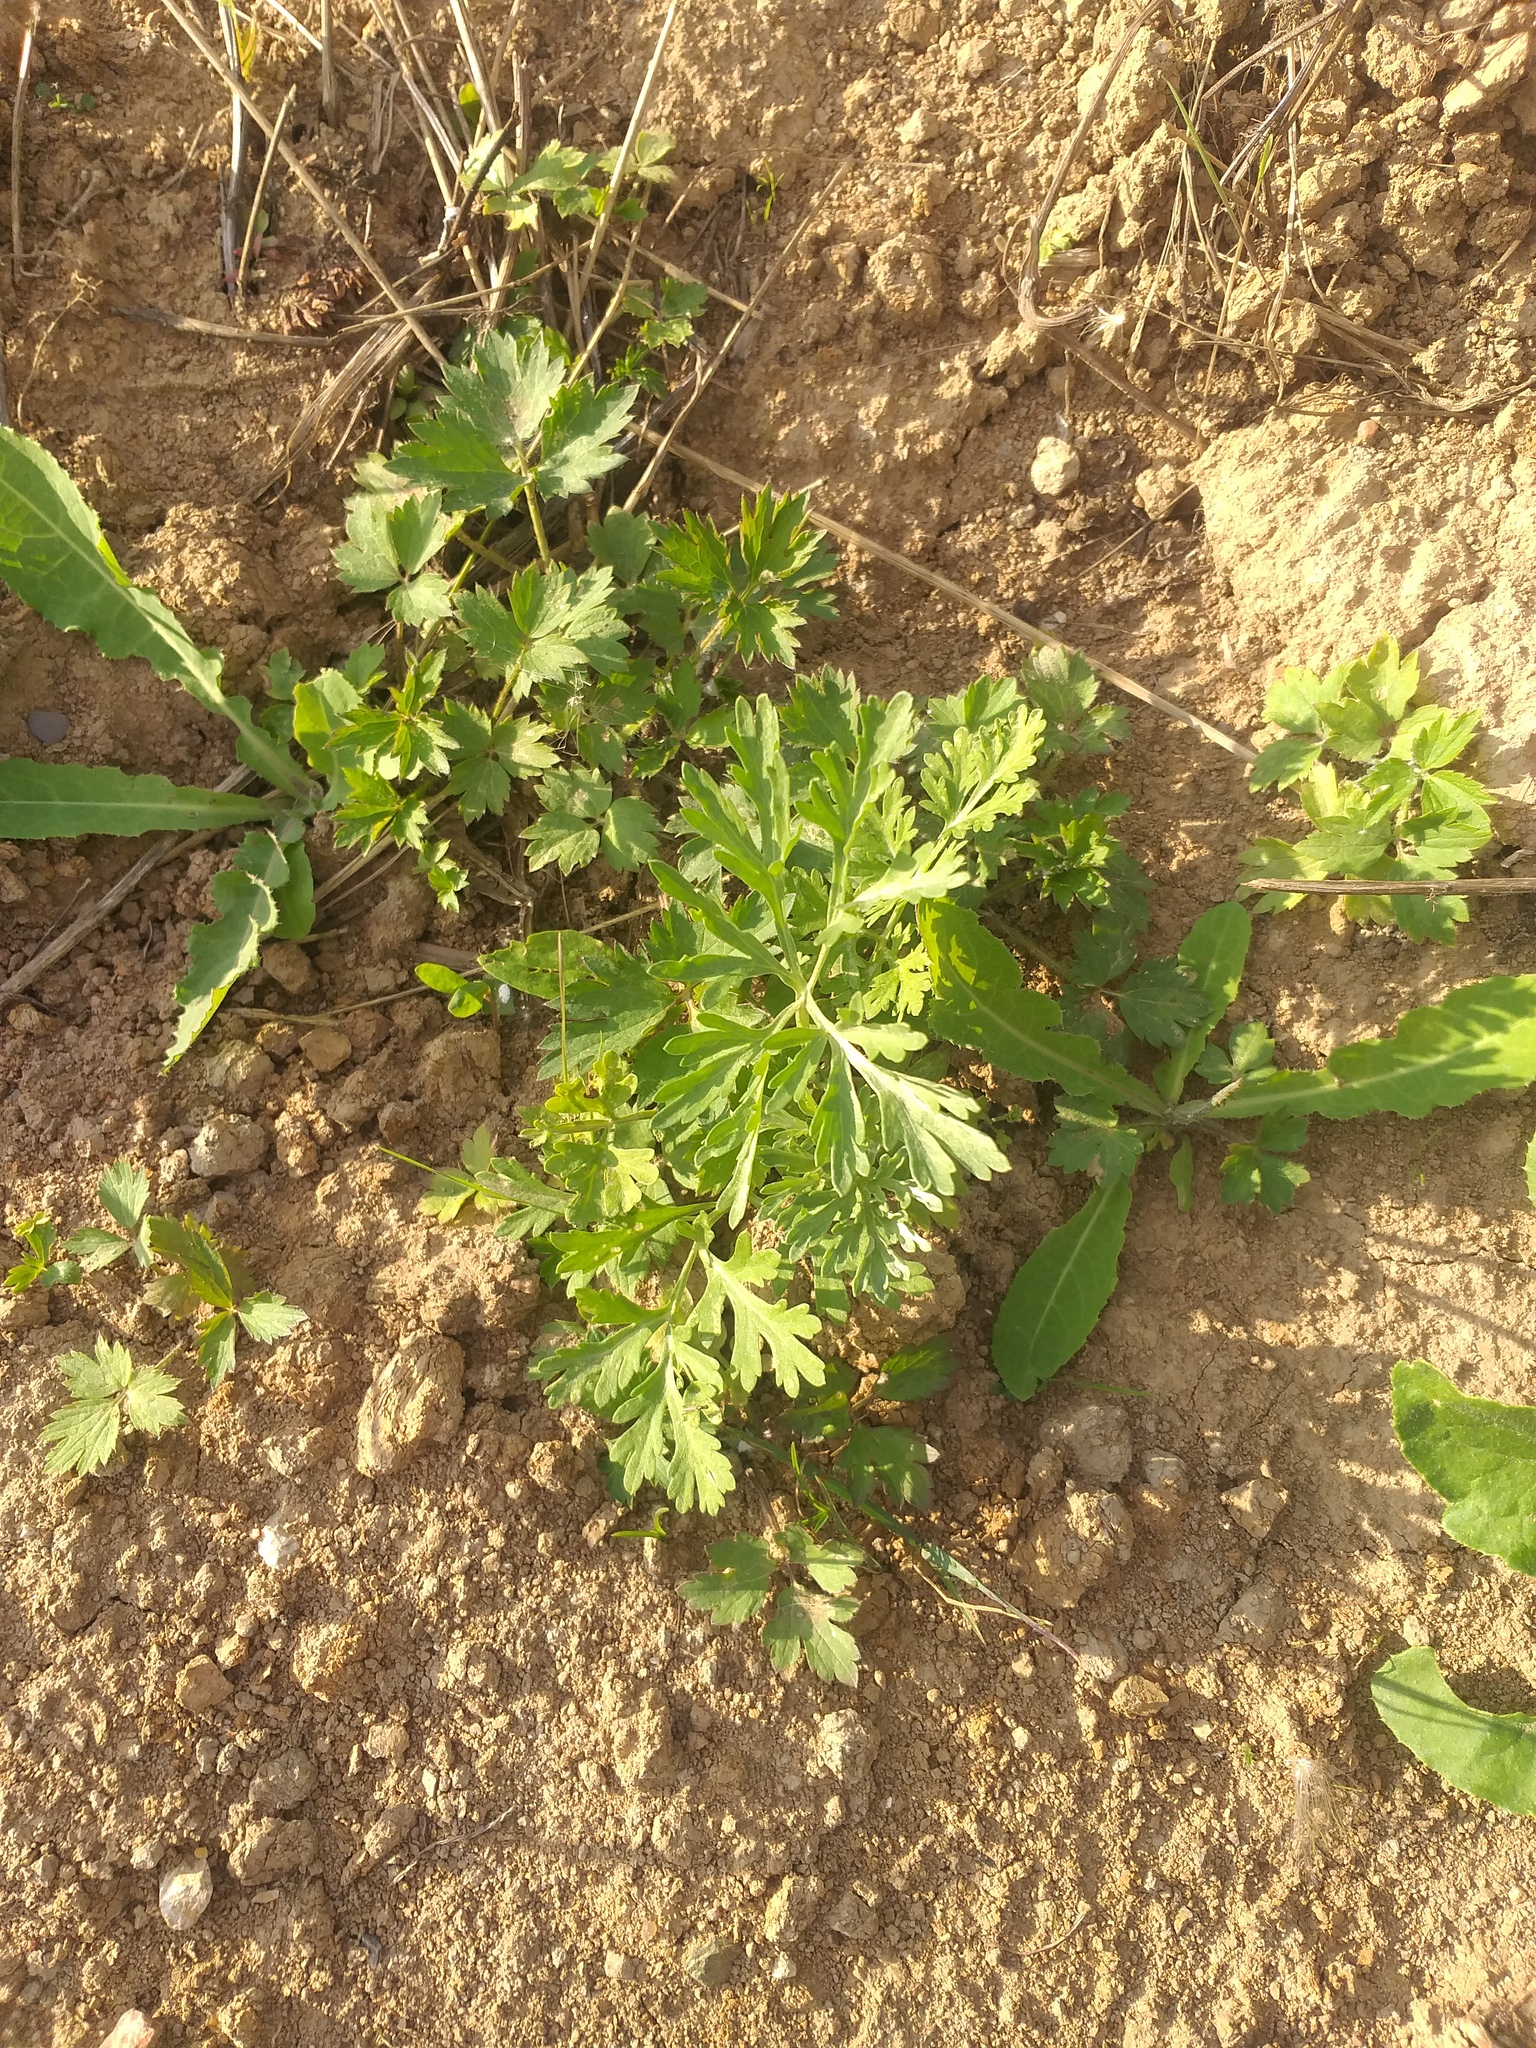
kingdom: Plantae
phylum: Tracheophyta
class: Magnoliopsida
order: Asterales
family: Asteraceae
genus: Artemisia
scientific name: Artemisia absinthium
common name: Wormwood
